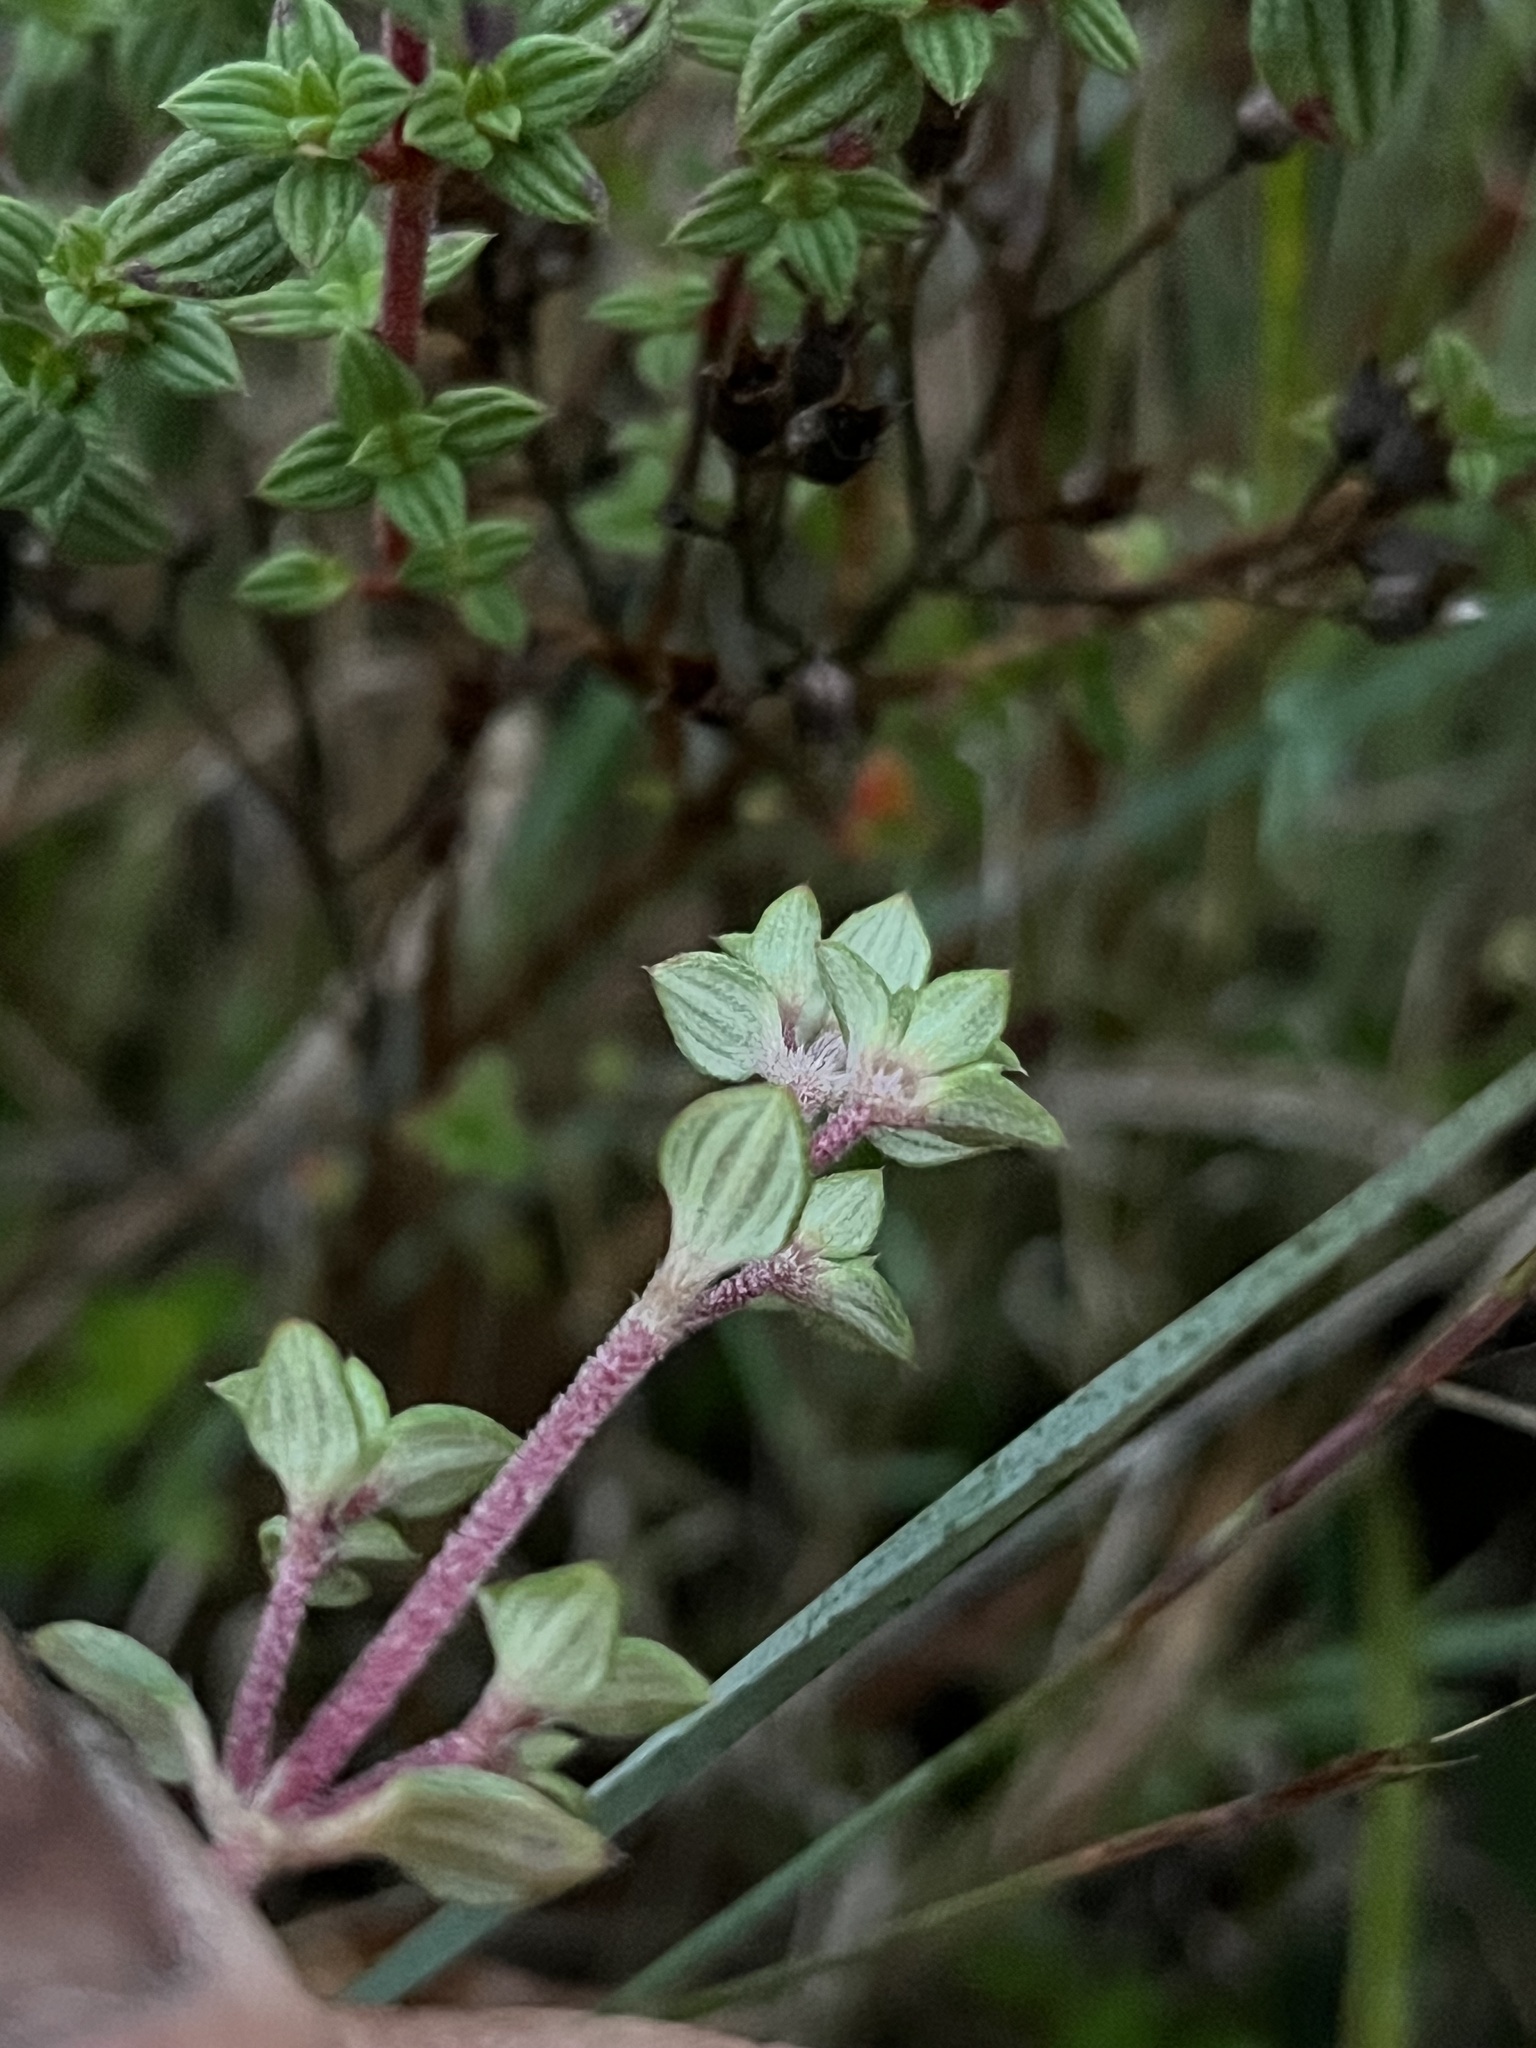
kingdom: Plantae
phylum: Tracheophyta
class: Magnoliopsida
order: Myrtales
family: Melastomataceae
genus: Chaetolepis
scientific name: Chaetolepis microphylla
